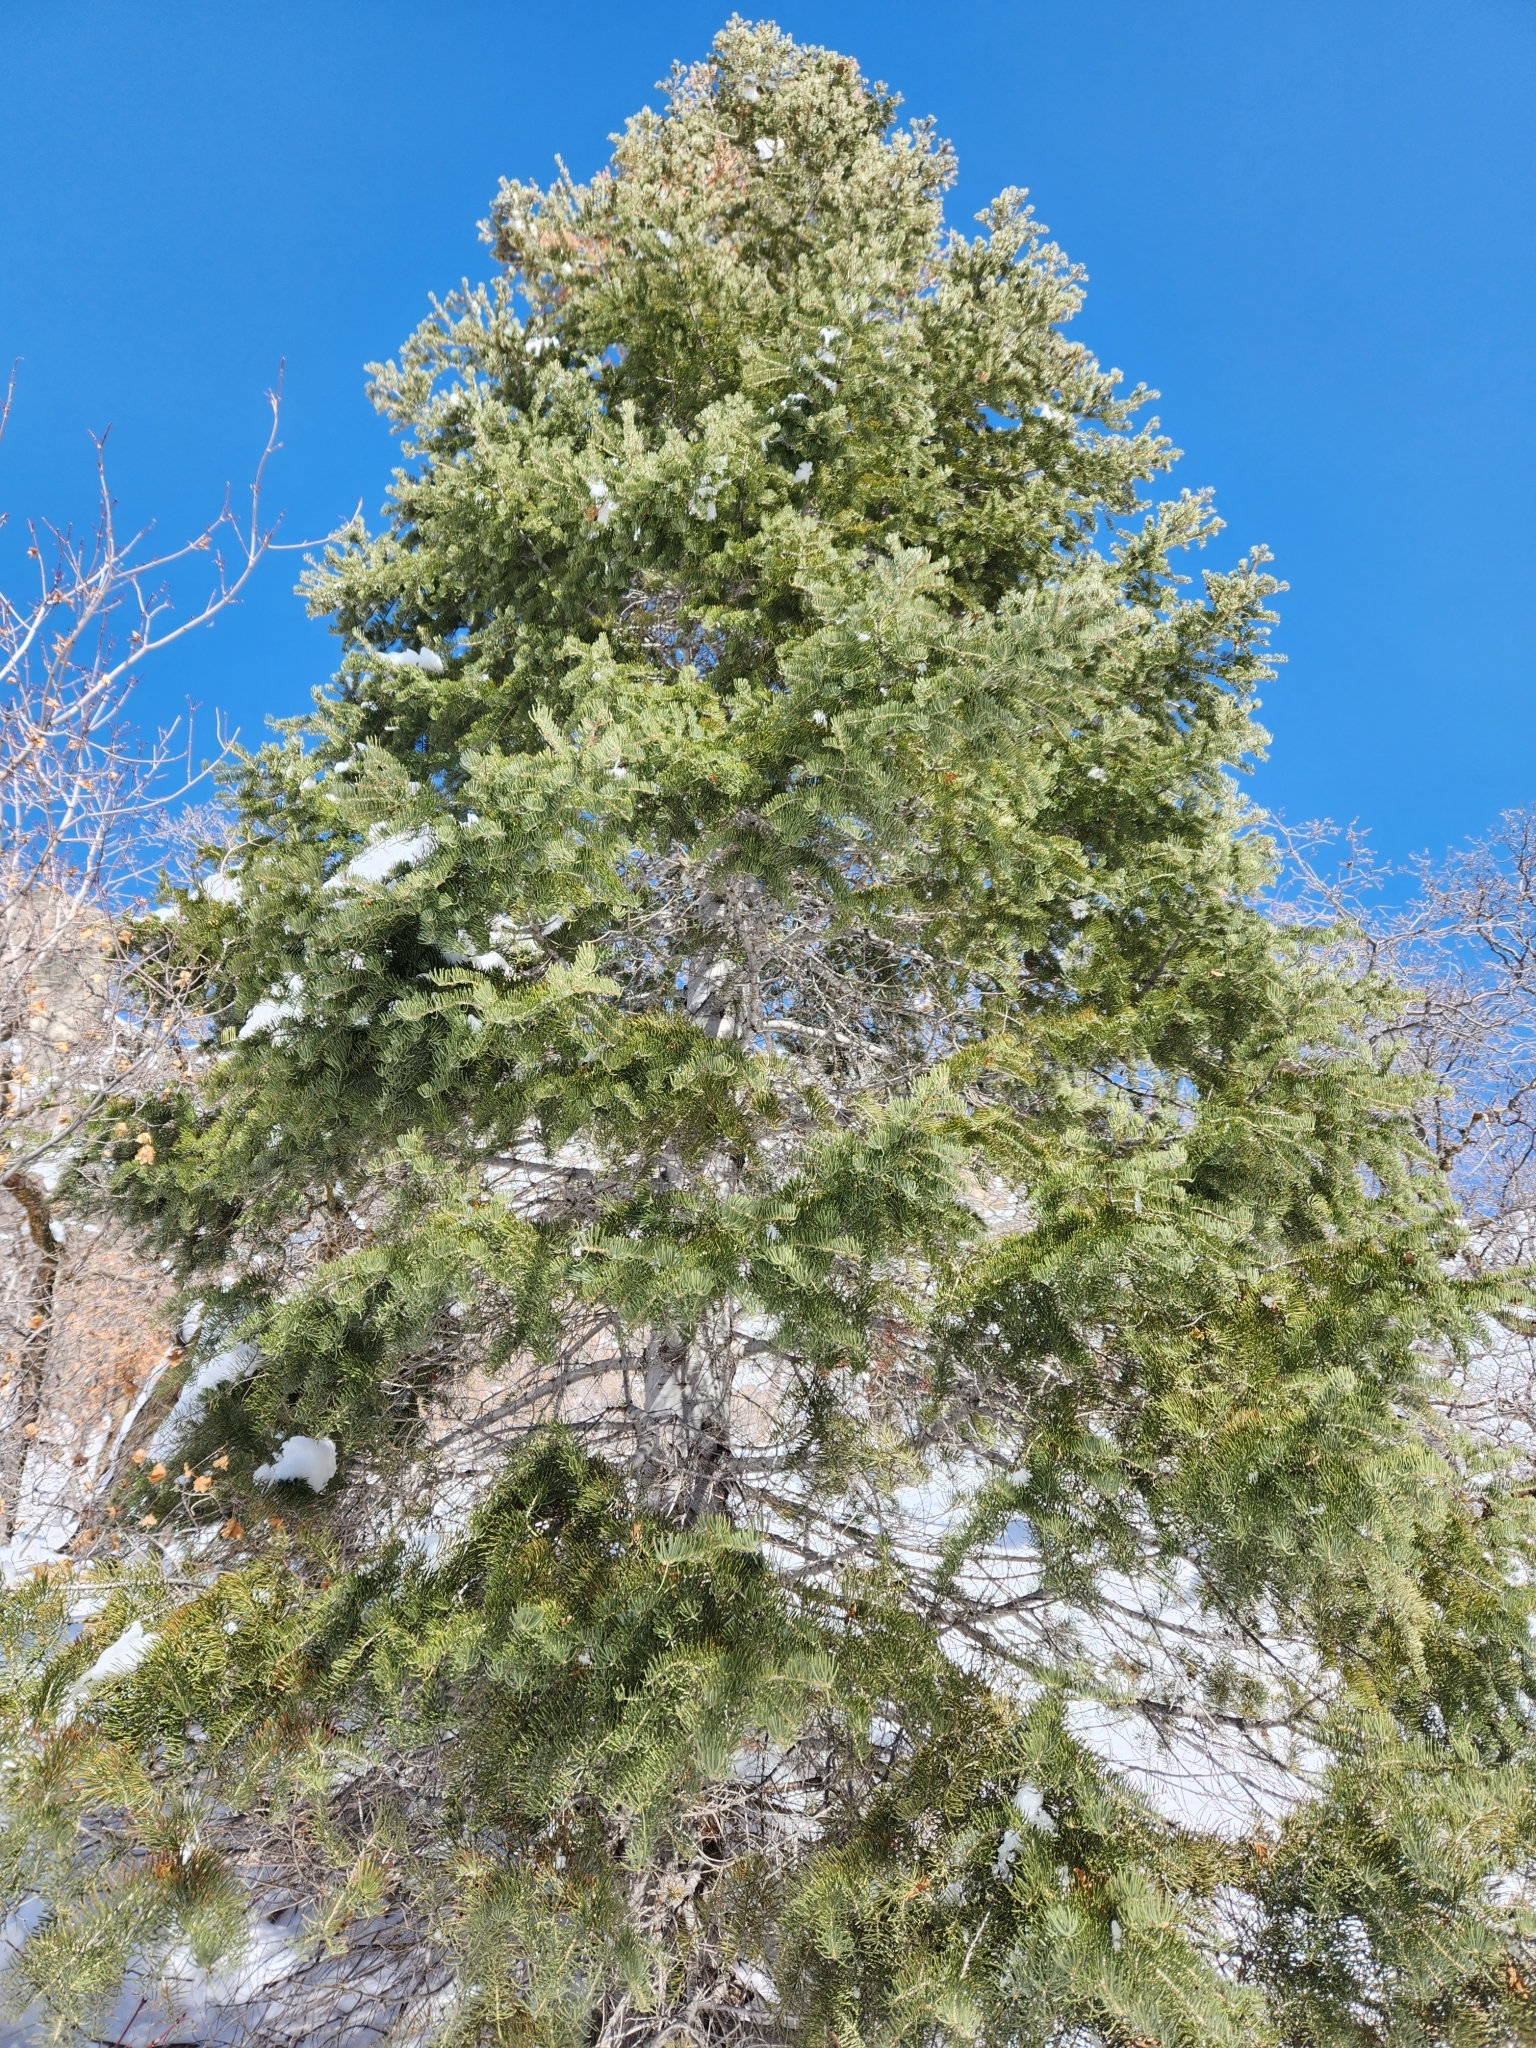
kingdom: Plantae
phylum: Tracheophyta
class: Pinopsida
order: Pinales
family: Pinaceae
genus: Abies
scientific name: Abies concolor
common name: Colorado fir
